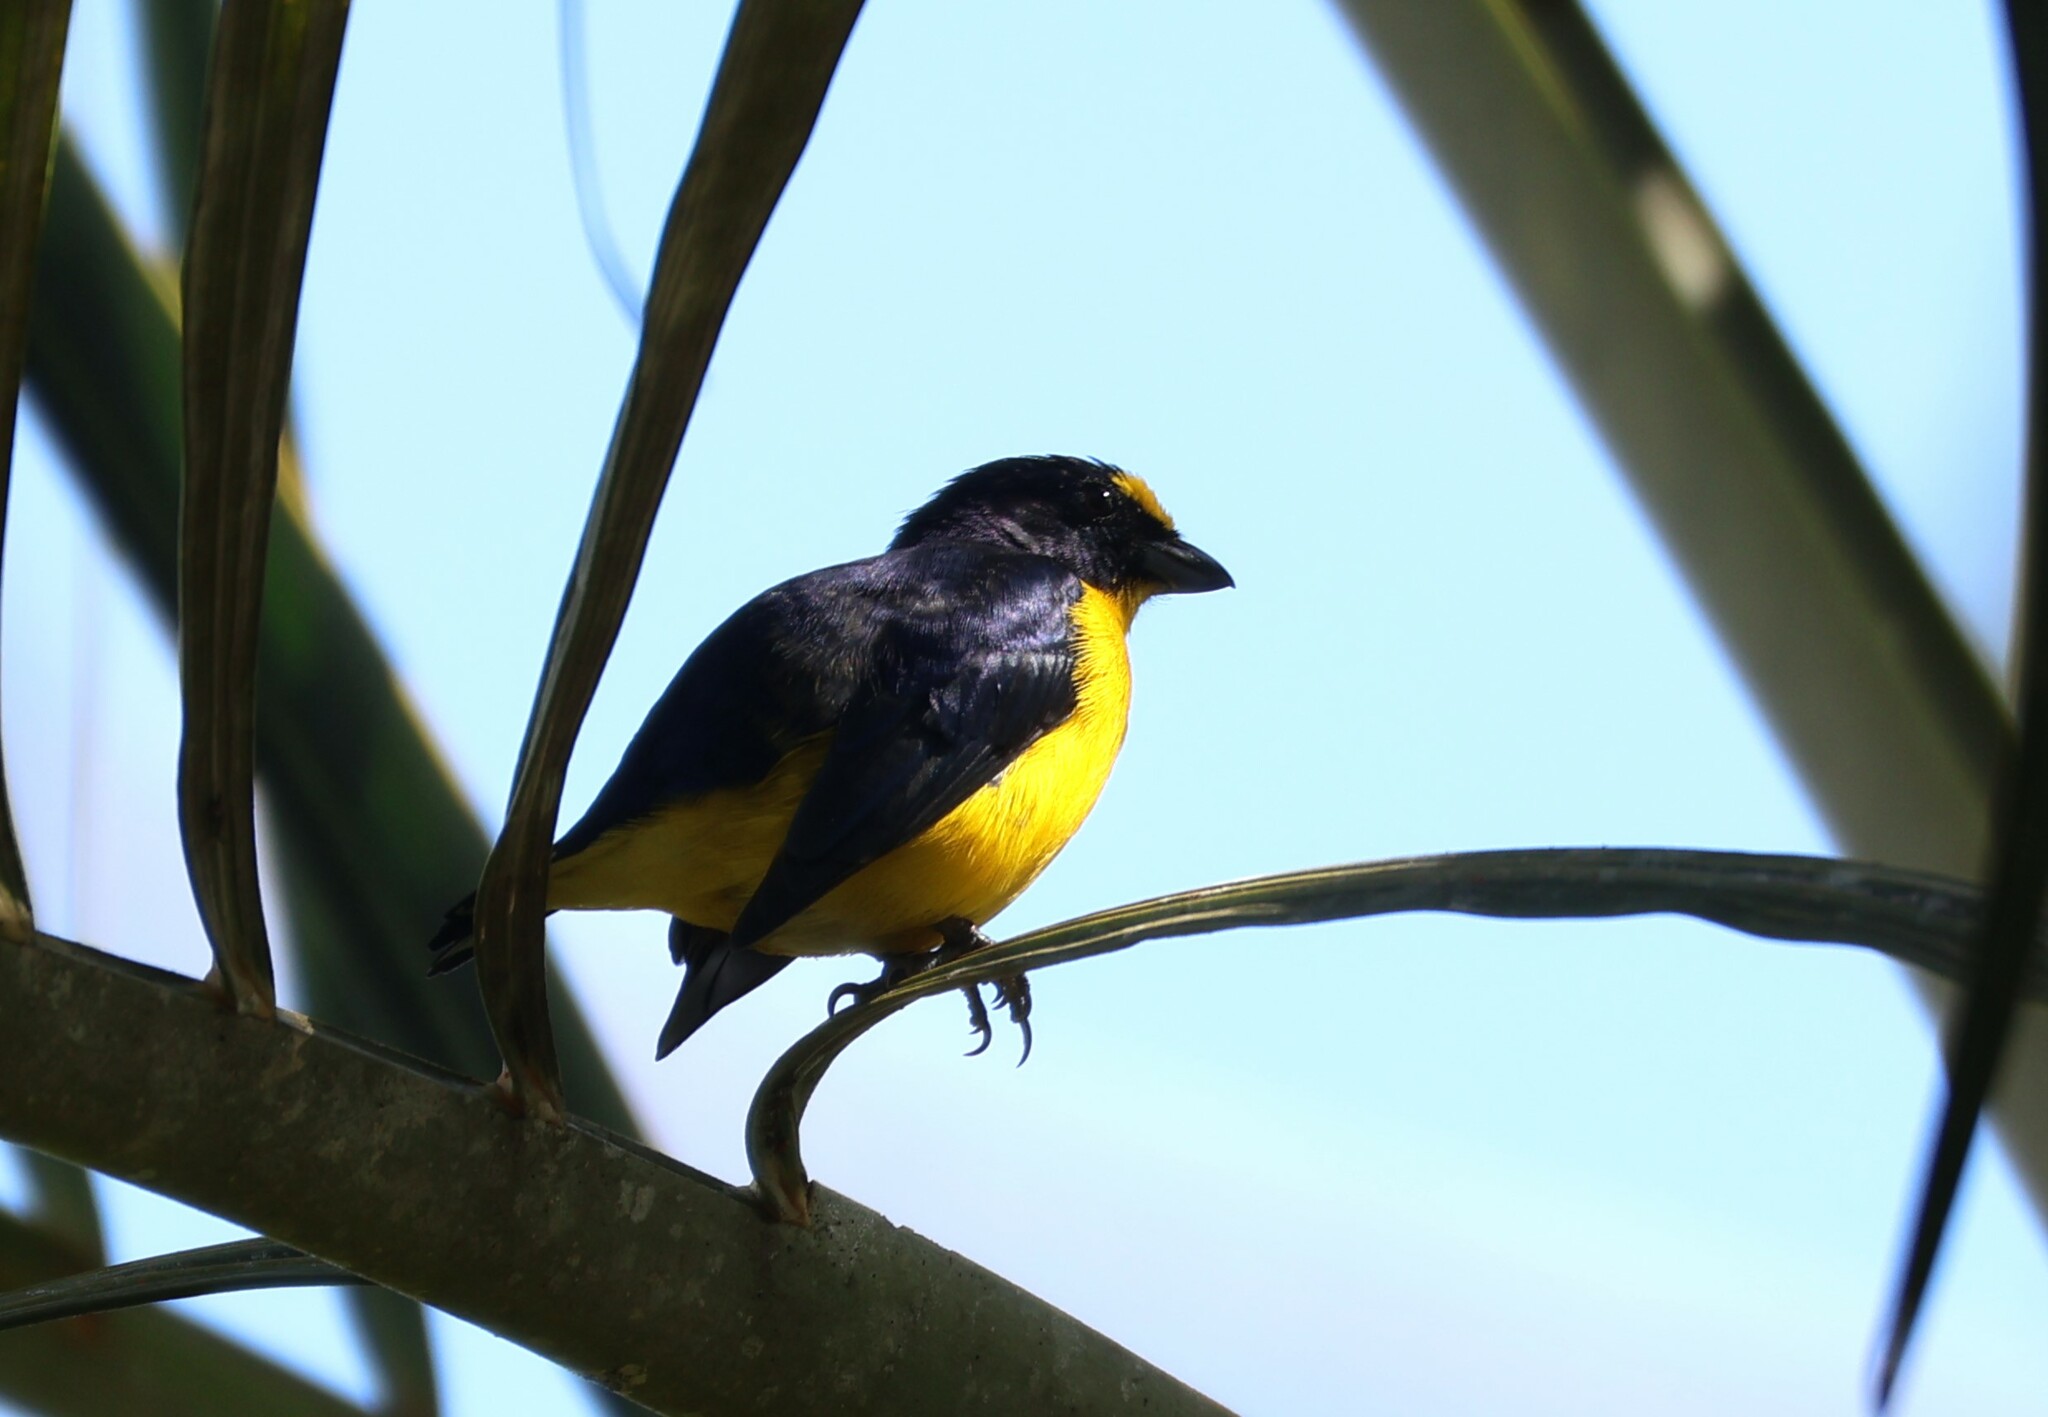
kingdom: Animalia
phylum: Chordata
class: Aves
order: Passeriformes
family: Fringillidae
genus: Euphonia
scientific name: Euphonia hirundinacea
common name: Yellow-throated euphonia
